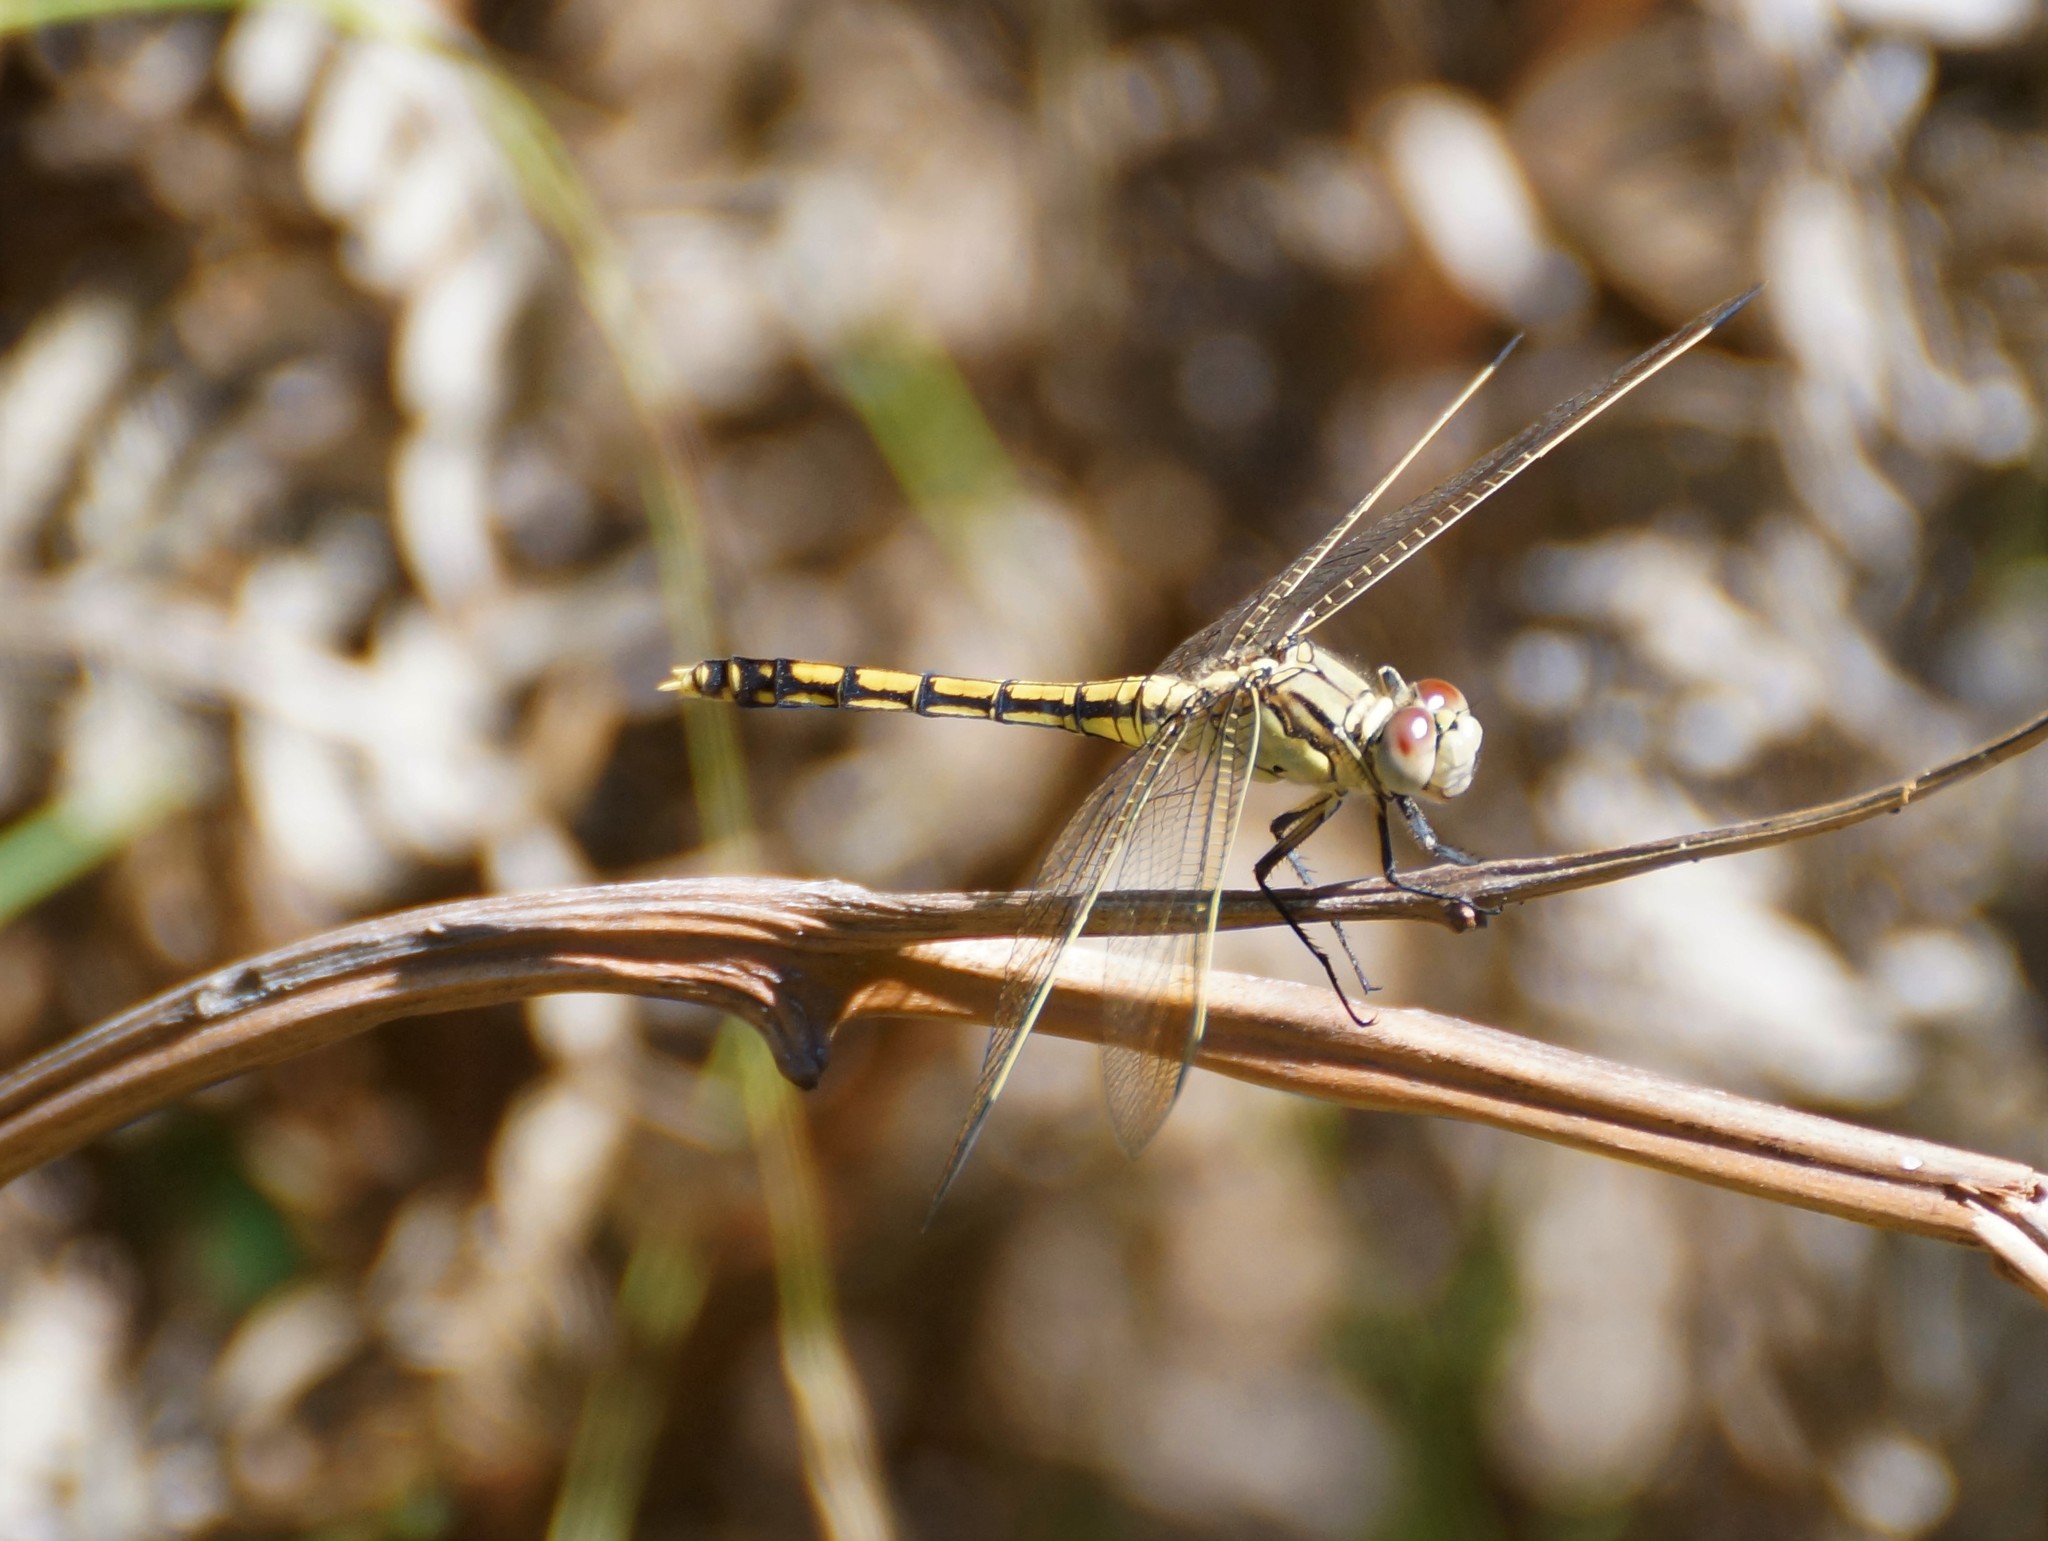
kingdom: Animalia
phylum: Arthropoda
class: Insecta
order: Odonata
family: Libellulidae
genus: Orthetrum
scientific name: Orthetrum caledonicum
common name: Blue skimmer
